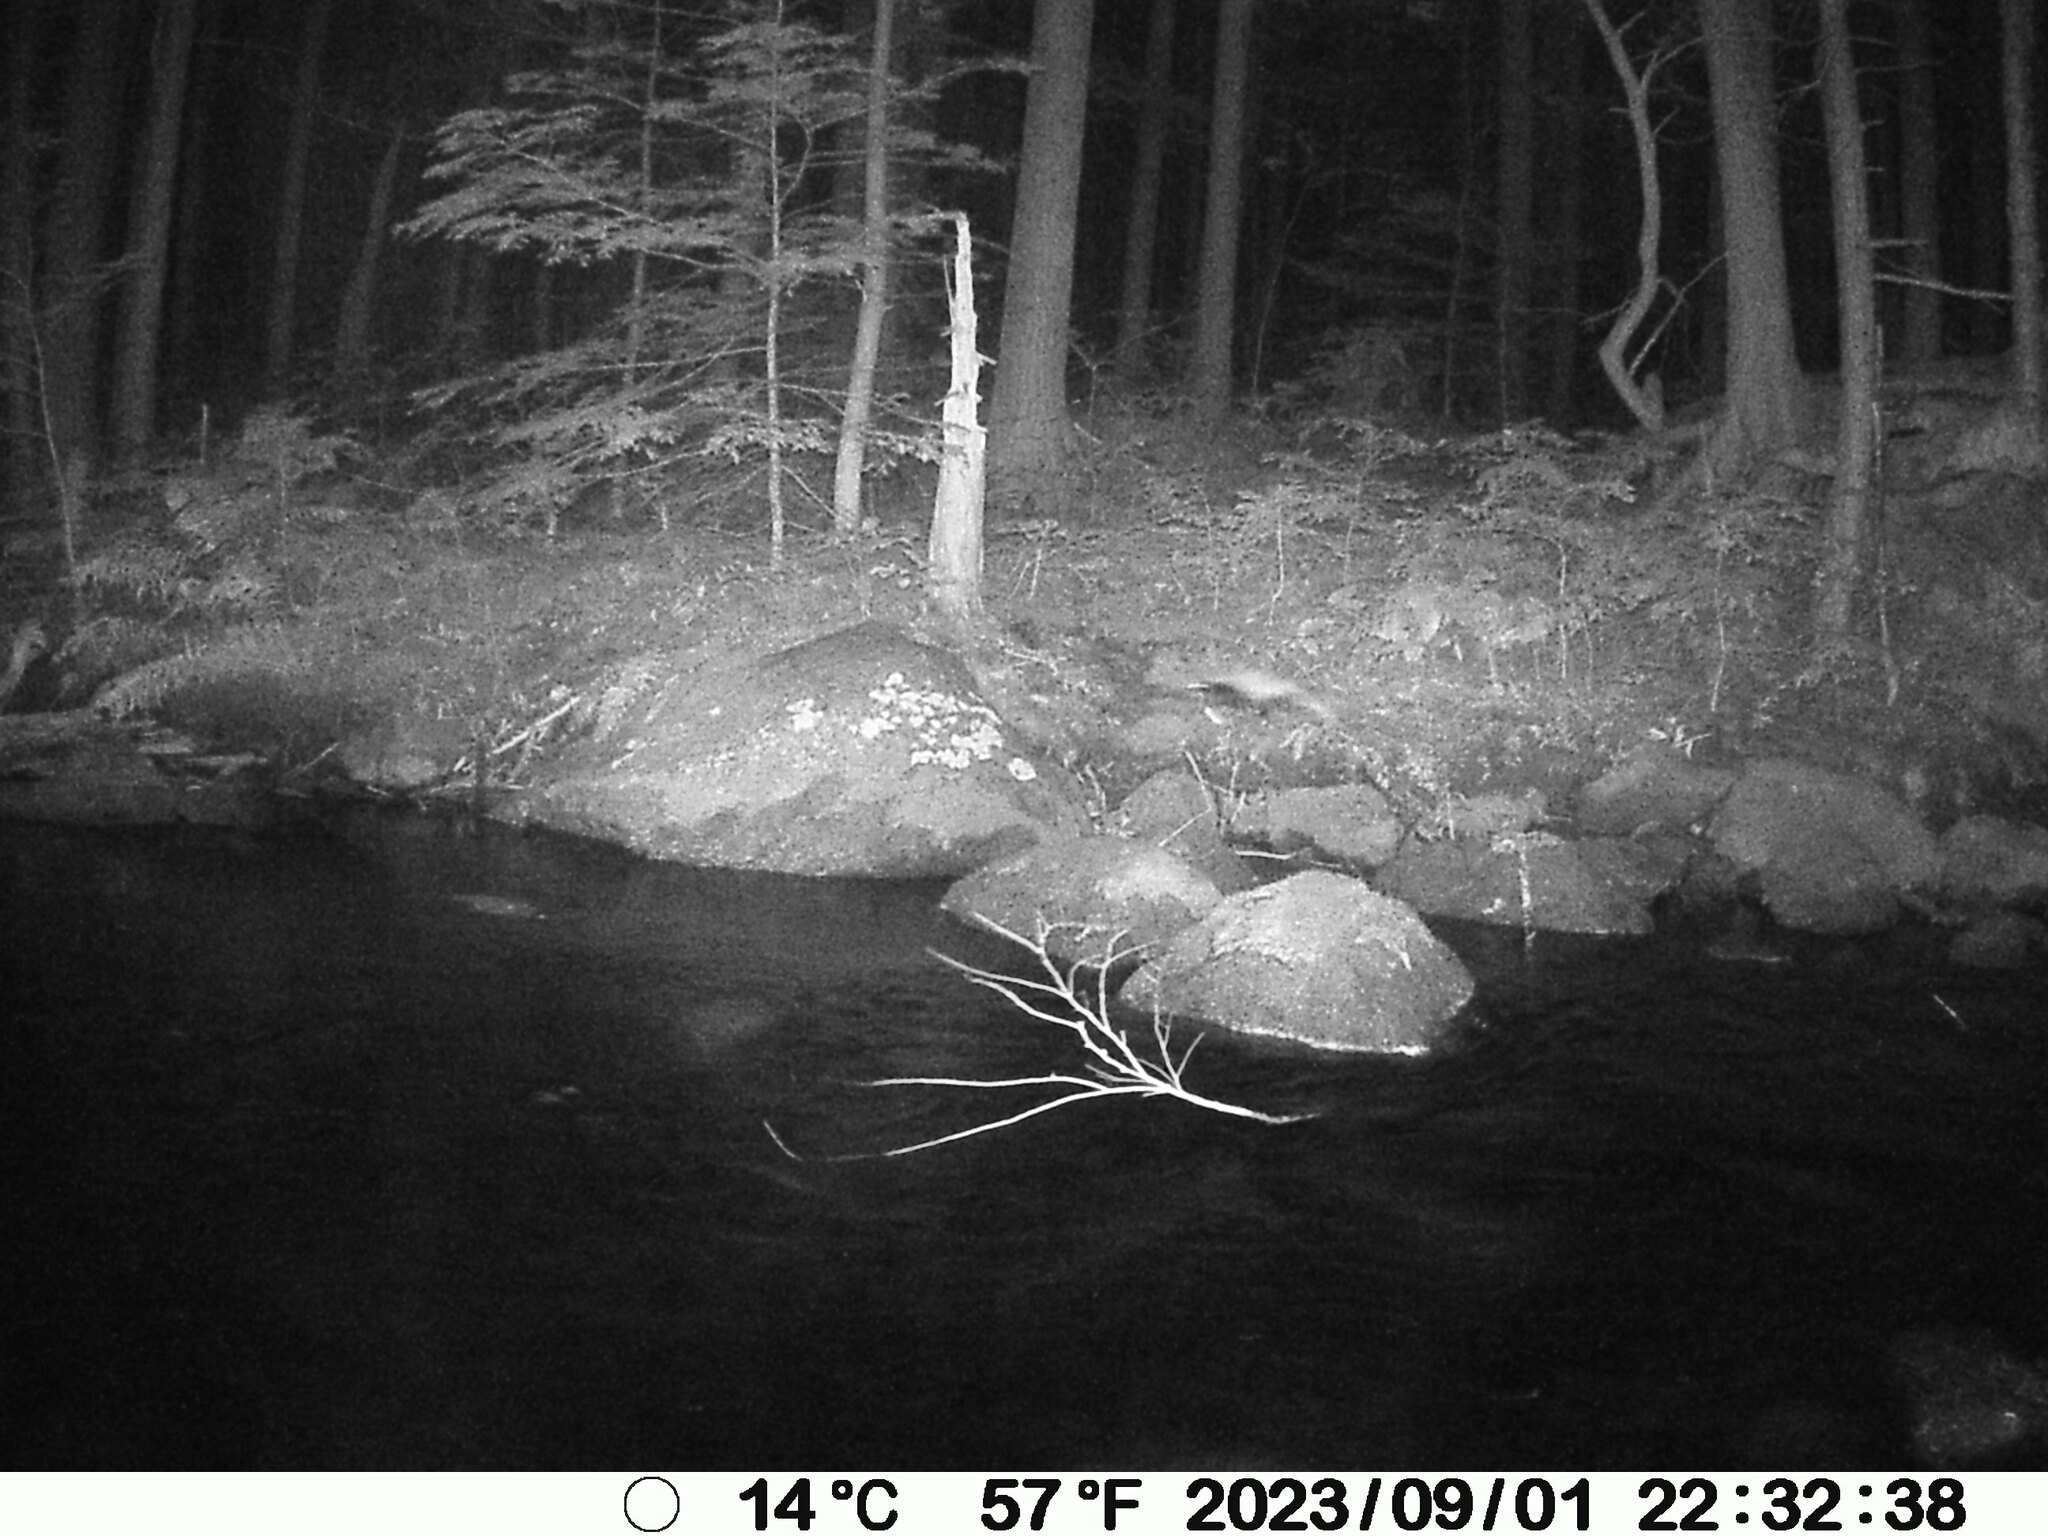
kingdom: Animalia
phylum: Chordata
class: Mammalia
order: Carnivora
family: Mephitidae
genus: Mephitis
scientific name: Mephitis mephitis
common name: Striped skunk
